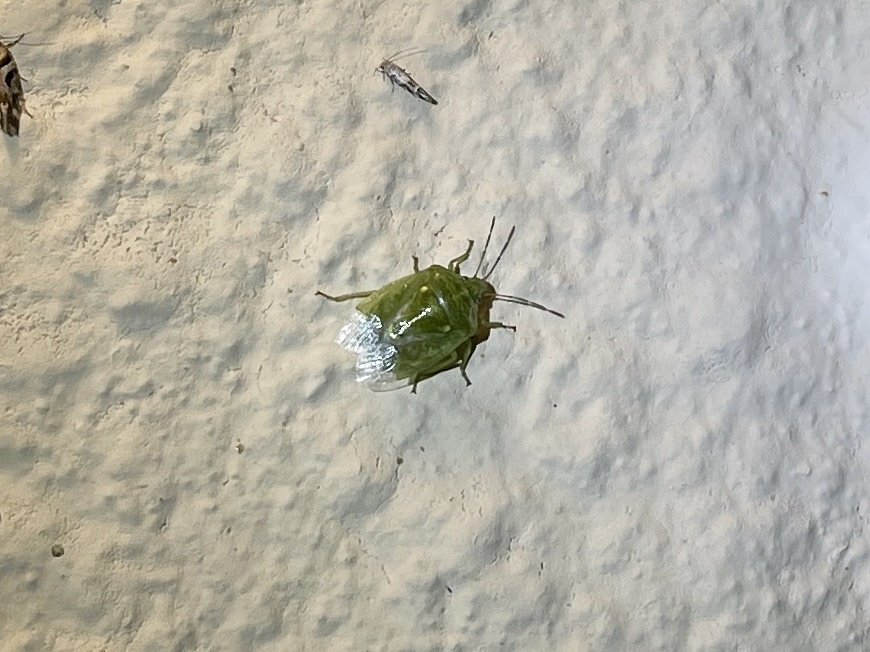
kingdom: Animalia
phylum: Arthropoda
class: Insecta
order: Hemiptera
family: Pentatomidae
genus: Banasa
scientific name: Banasa euchlora
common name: Cedar berry bug
